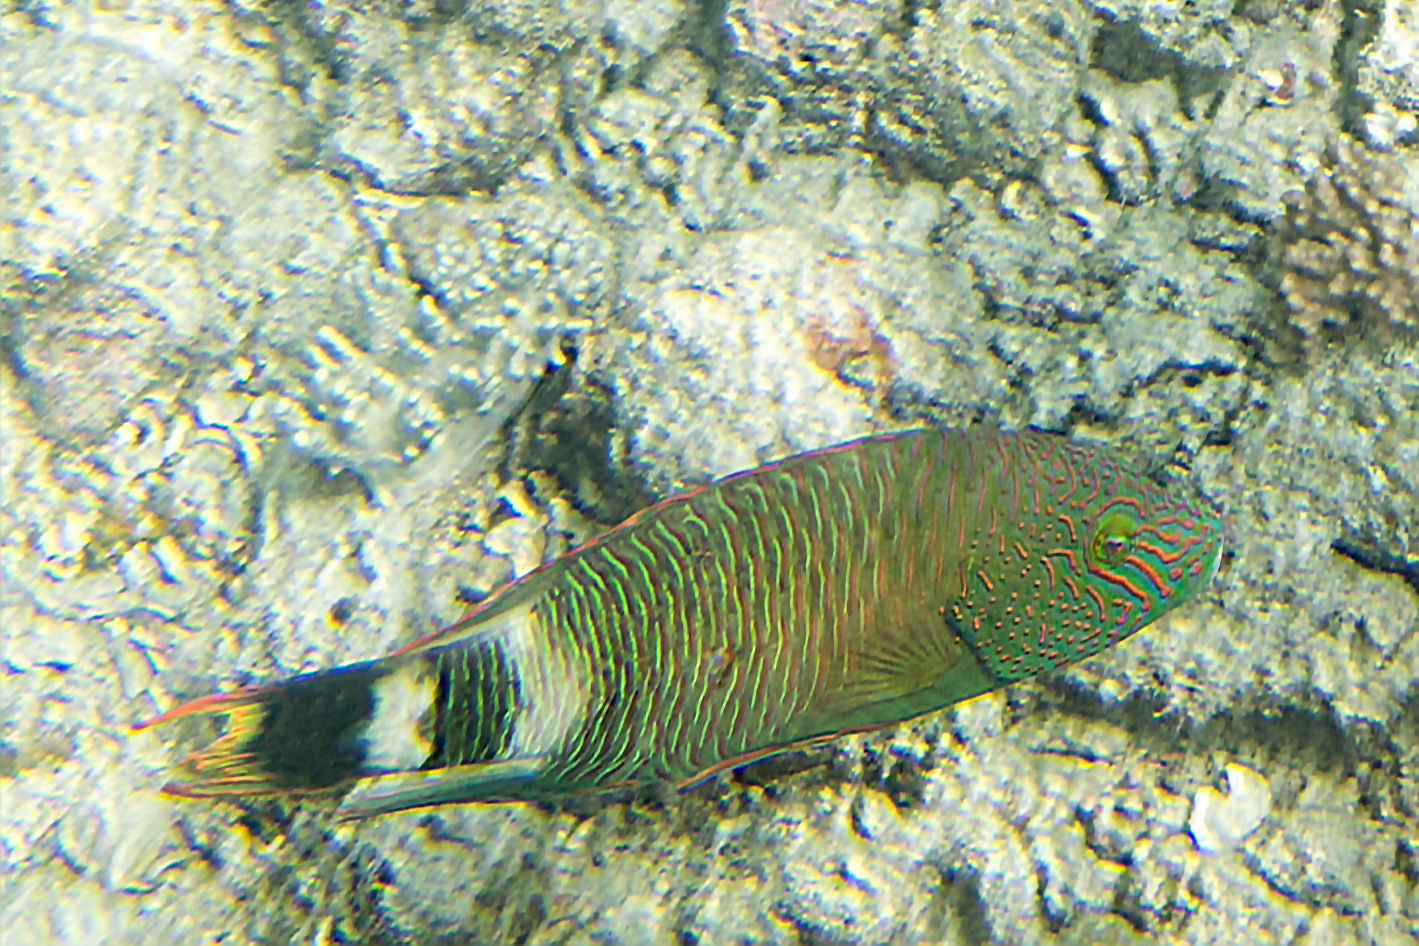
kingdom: Animalia
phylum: Chordata
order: Perciformes
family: Labridae
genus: Cheilinus
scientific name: Cheilinus trilobatus
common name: Tripletail maori wrasse
